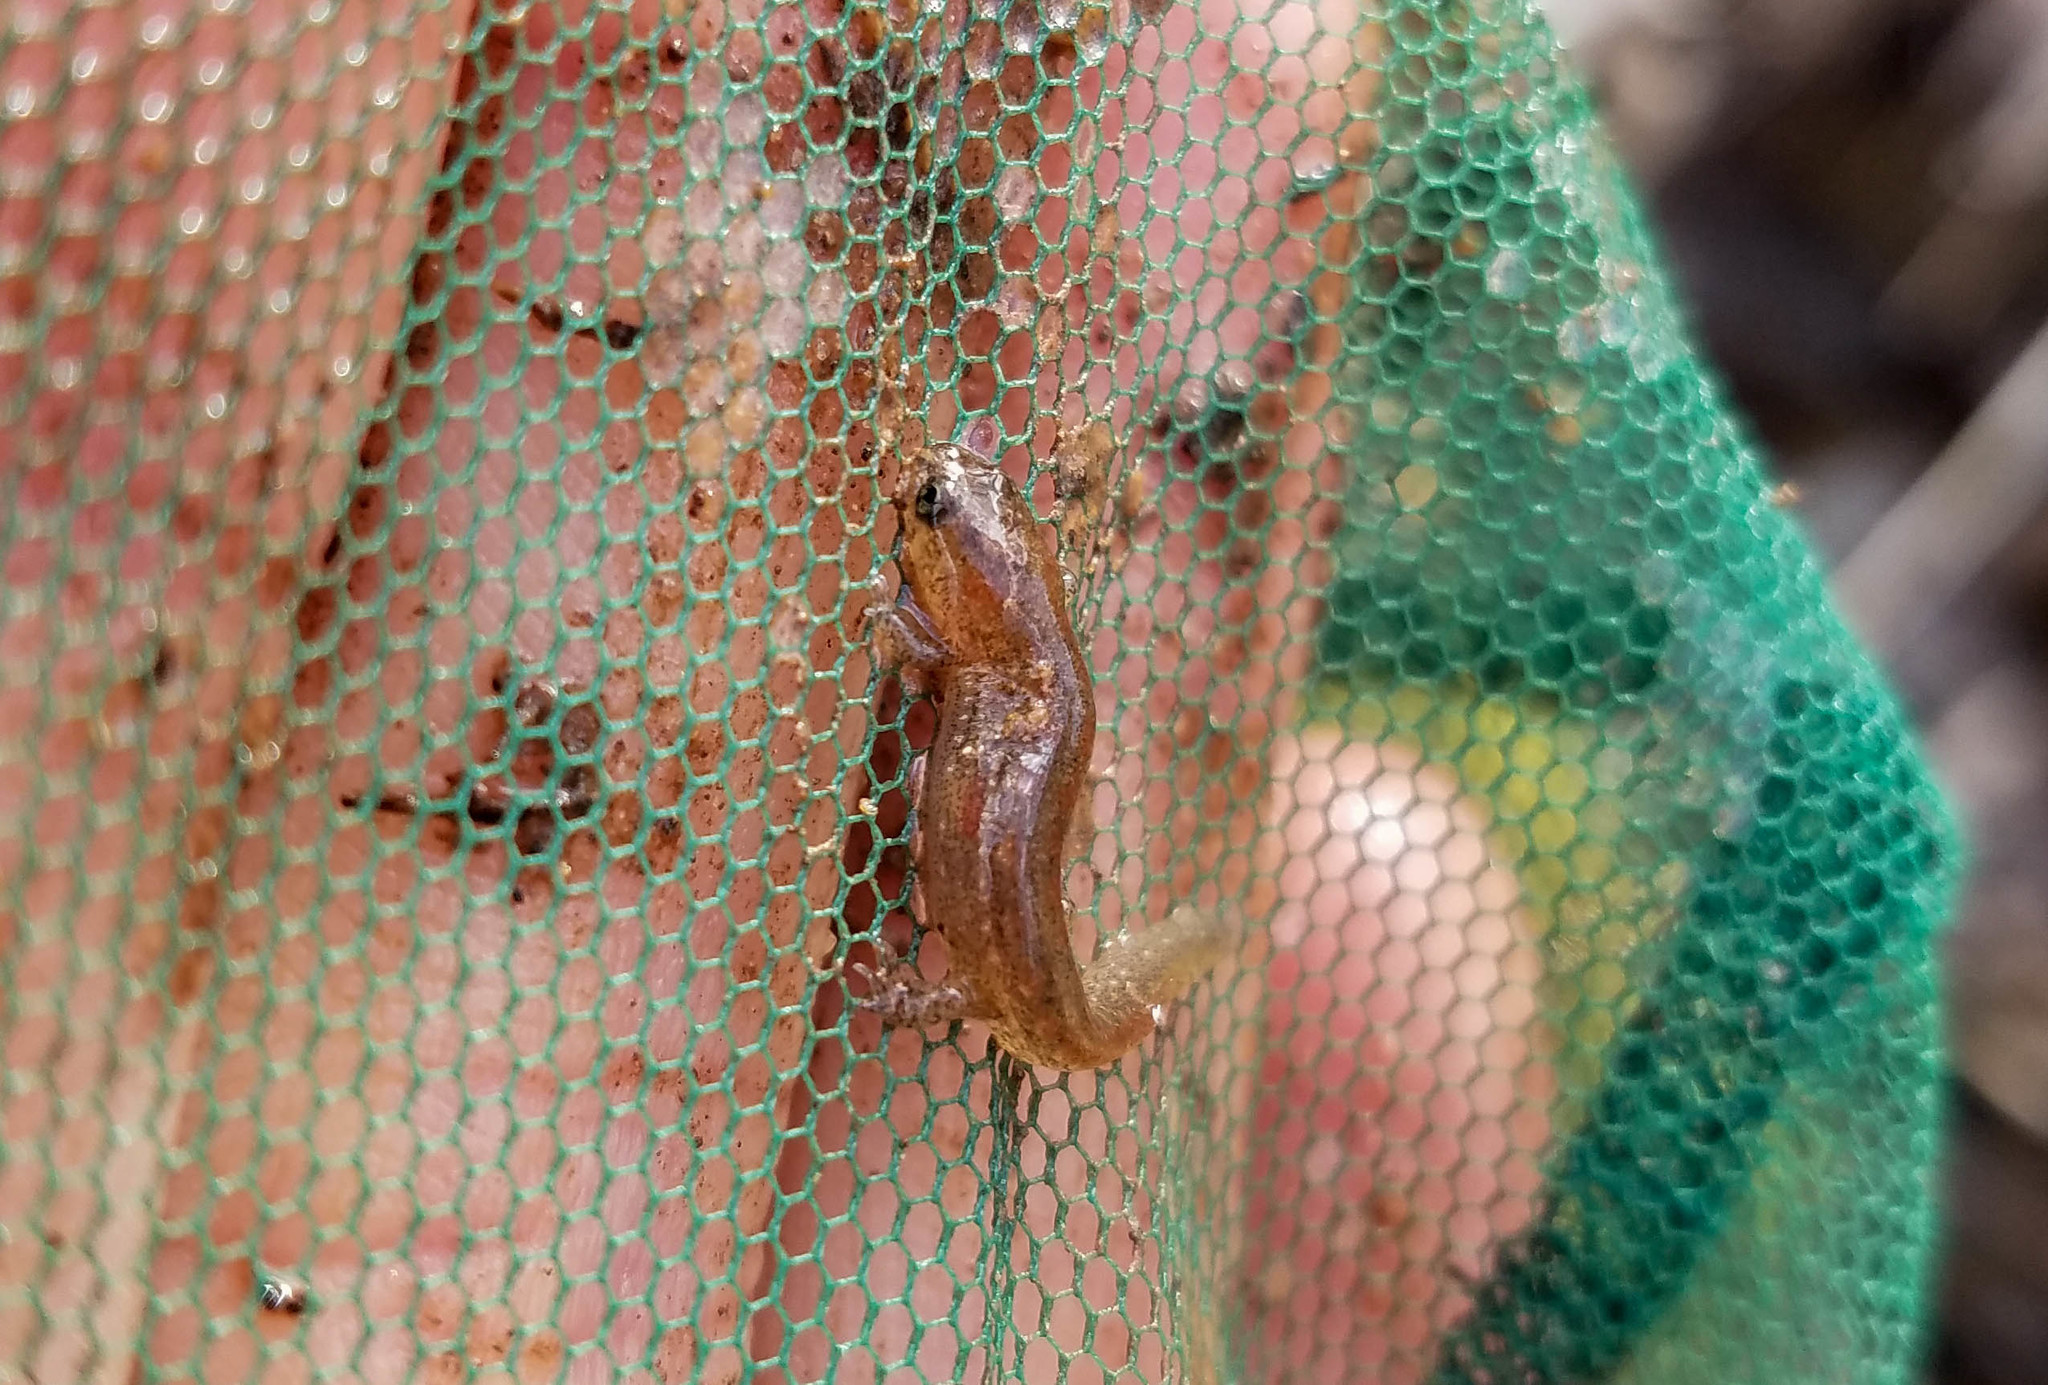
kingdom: Animalia
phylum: Chordata
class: Amphibia
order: Caudata
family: Plethodontidae
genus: Desmognathus
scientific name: Desmognathus fuscus
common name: Northern dusky salamander
